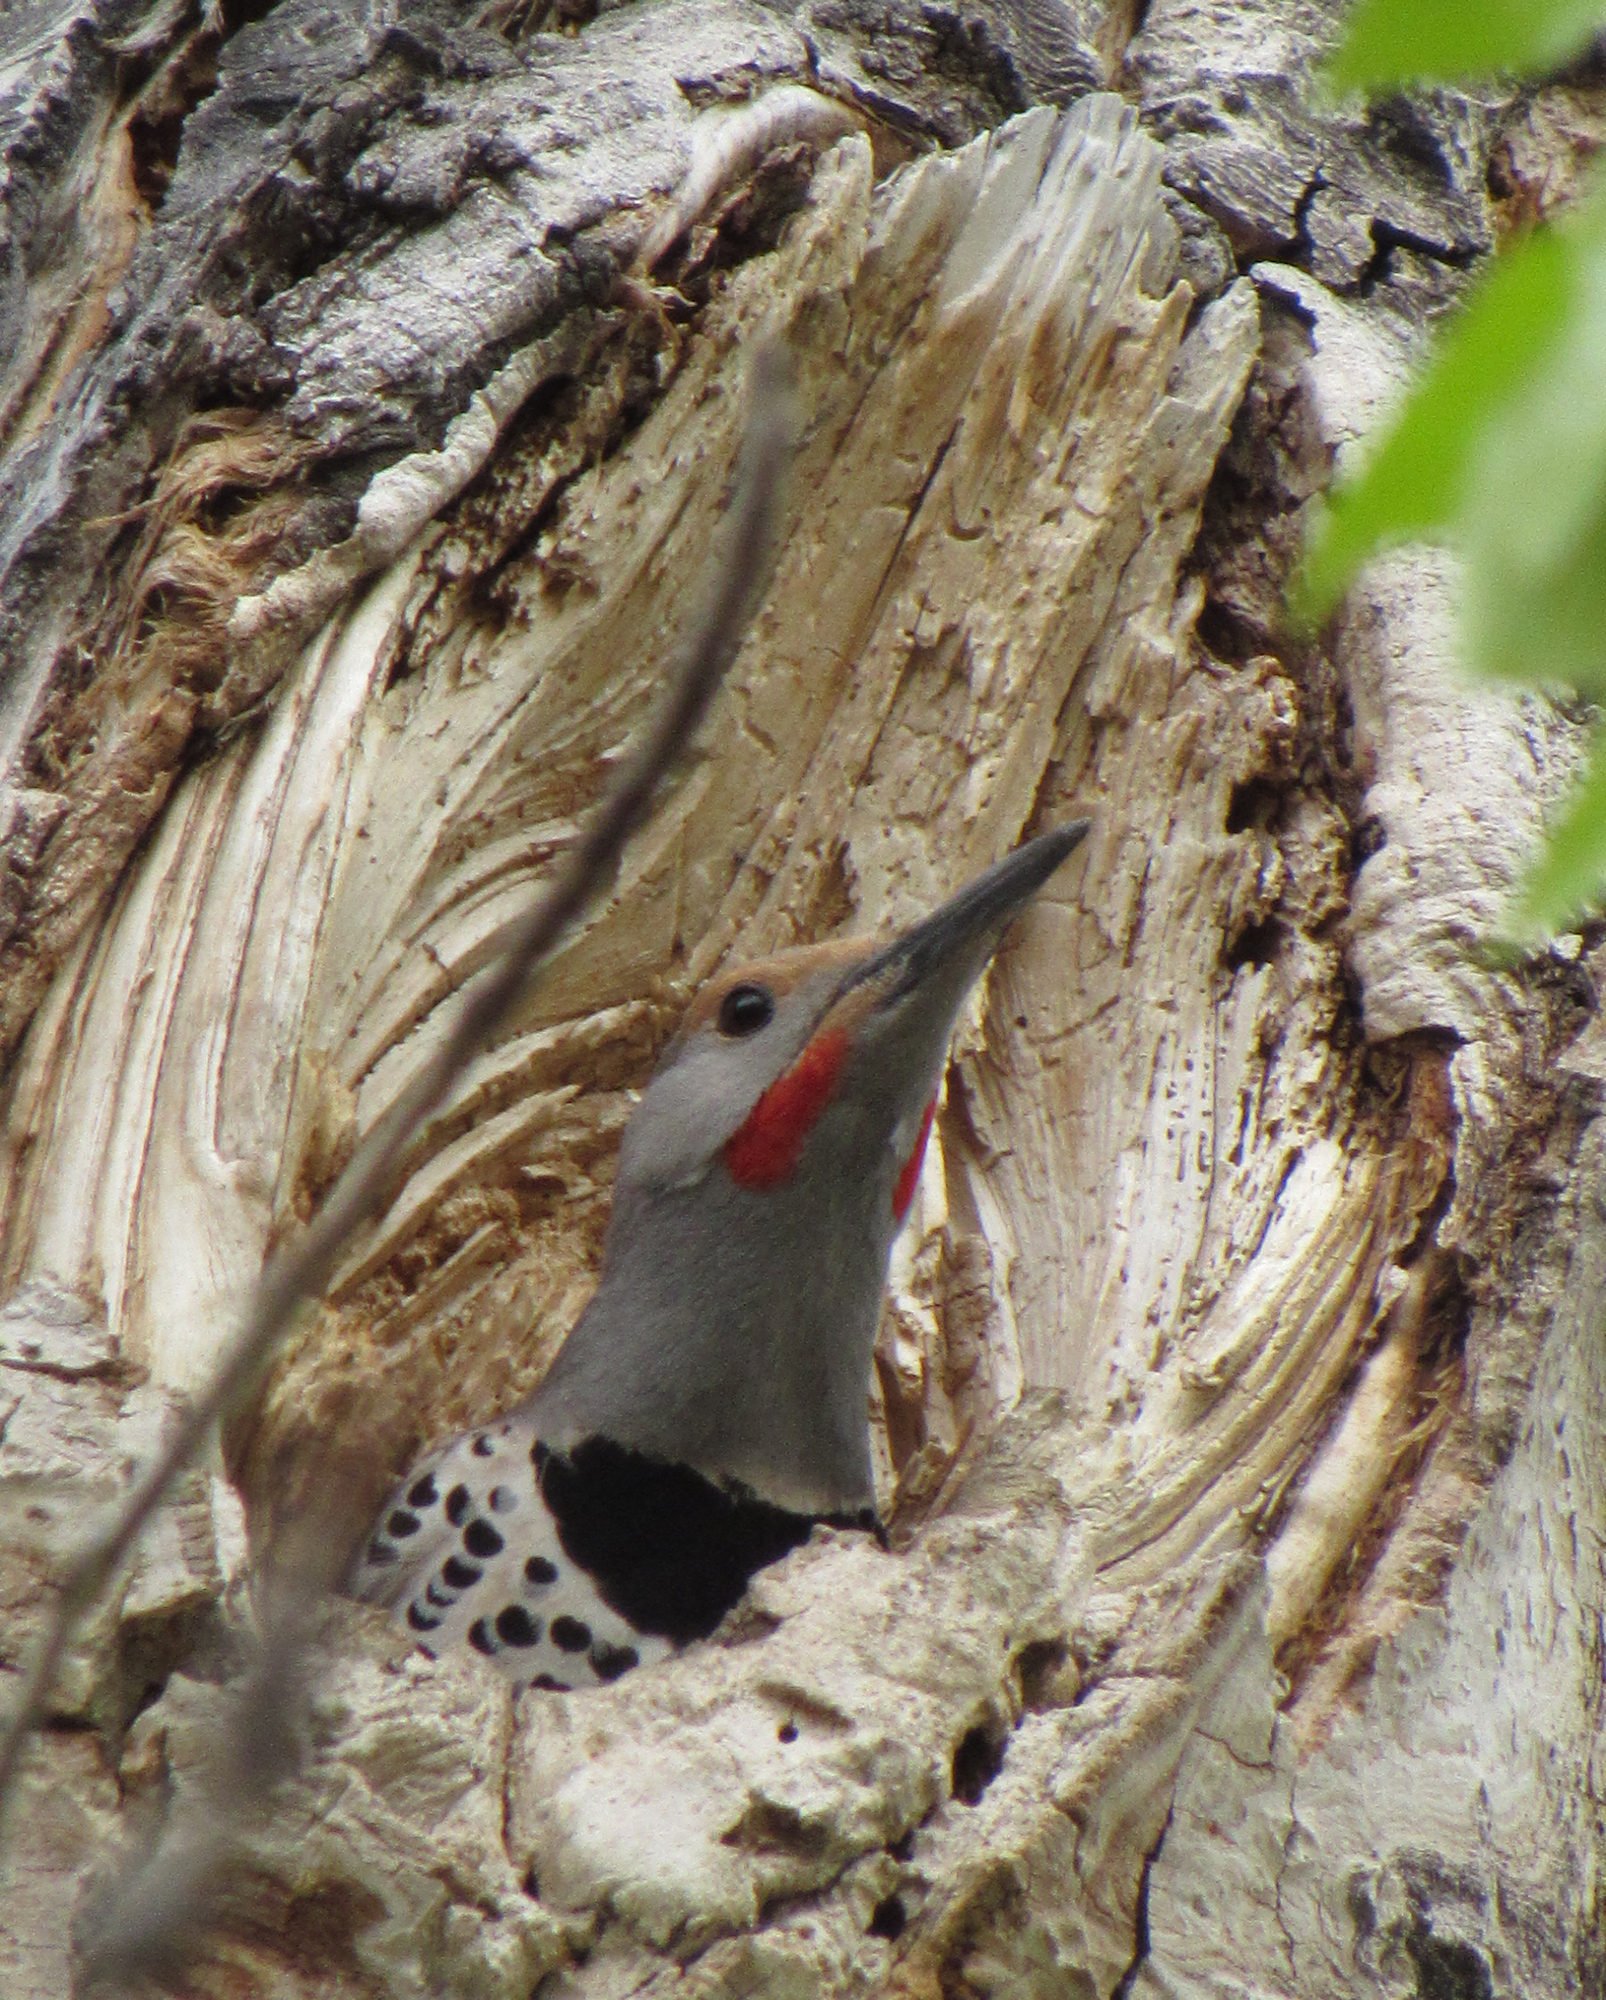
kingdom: Animalia
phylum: Chordata
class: Aves
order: Piciformes
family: Picidae
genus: Colaptes
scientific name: Colaptes auratus
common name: Northern flicker
